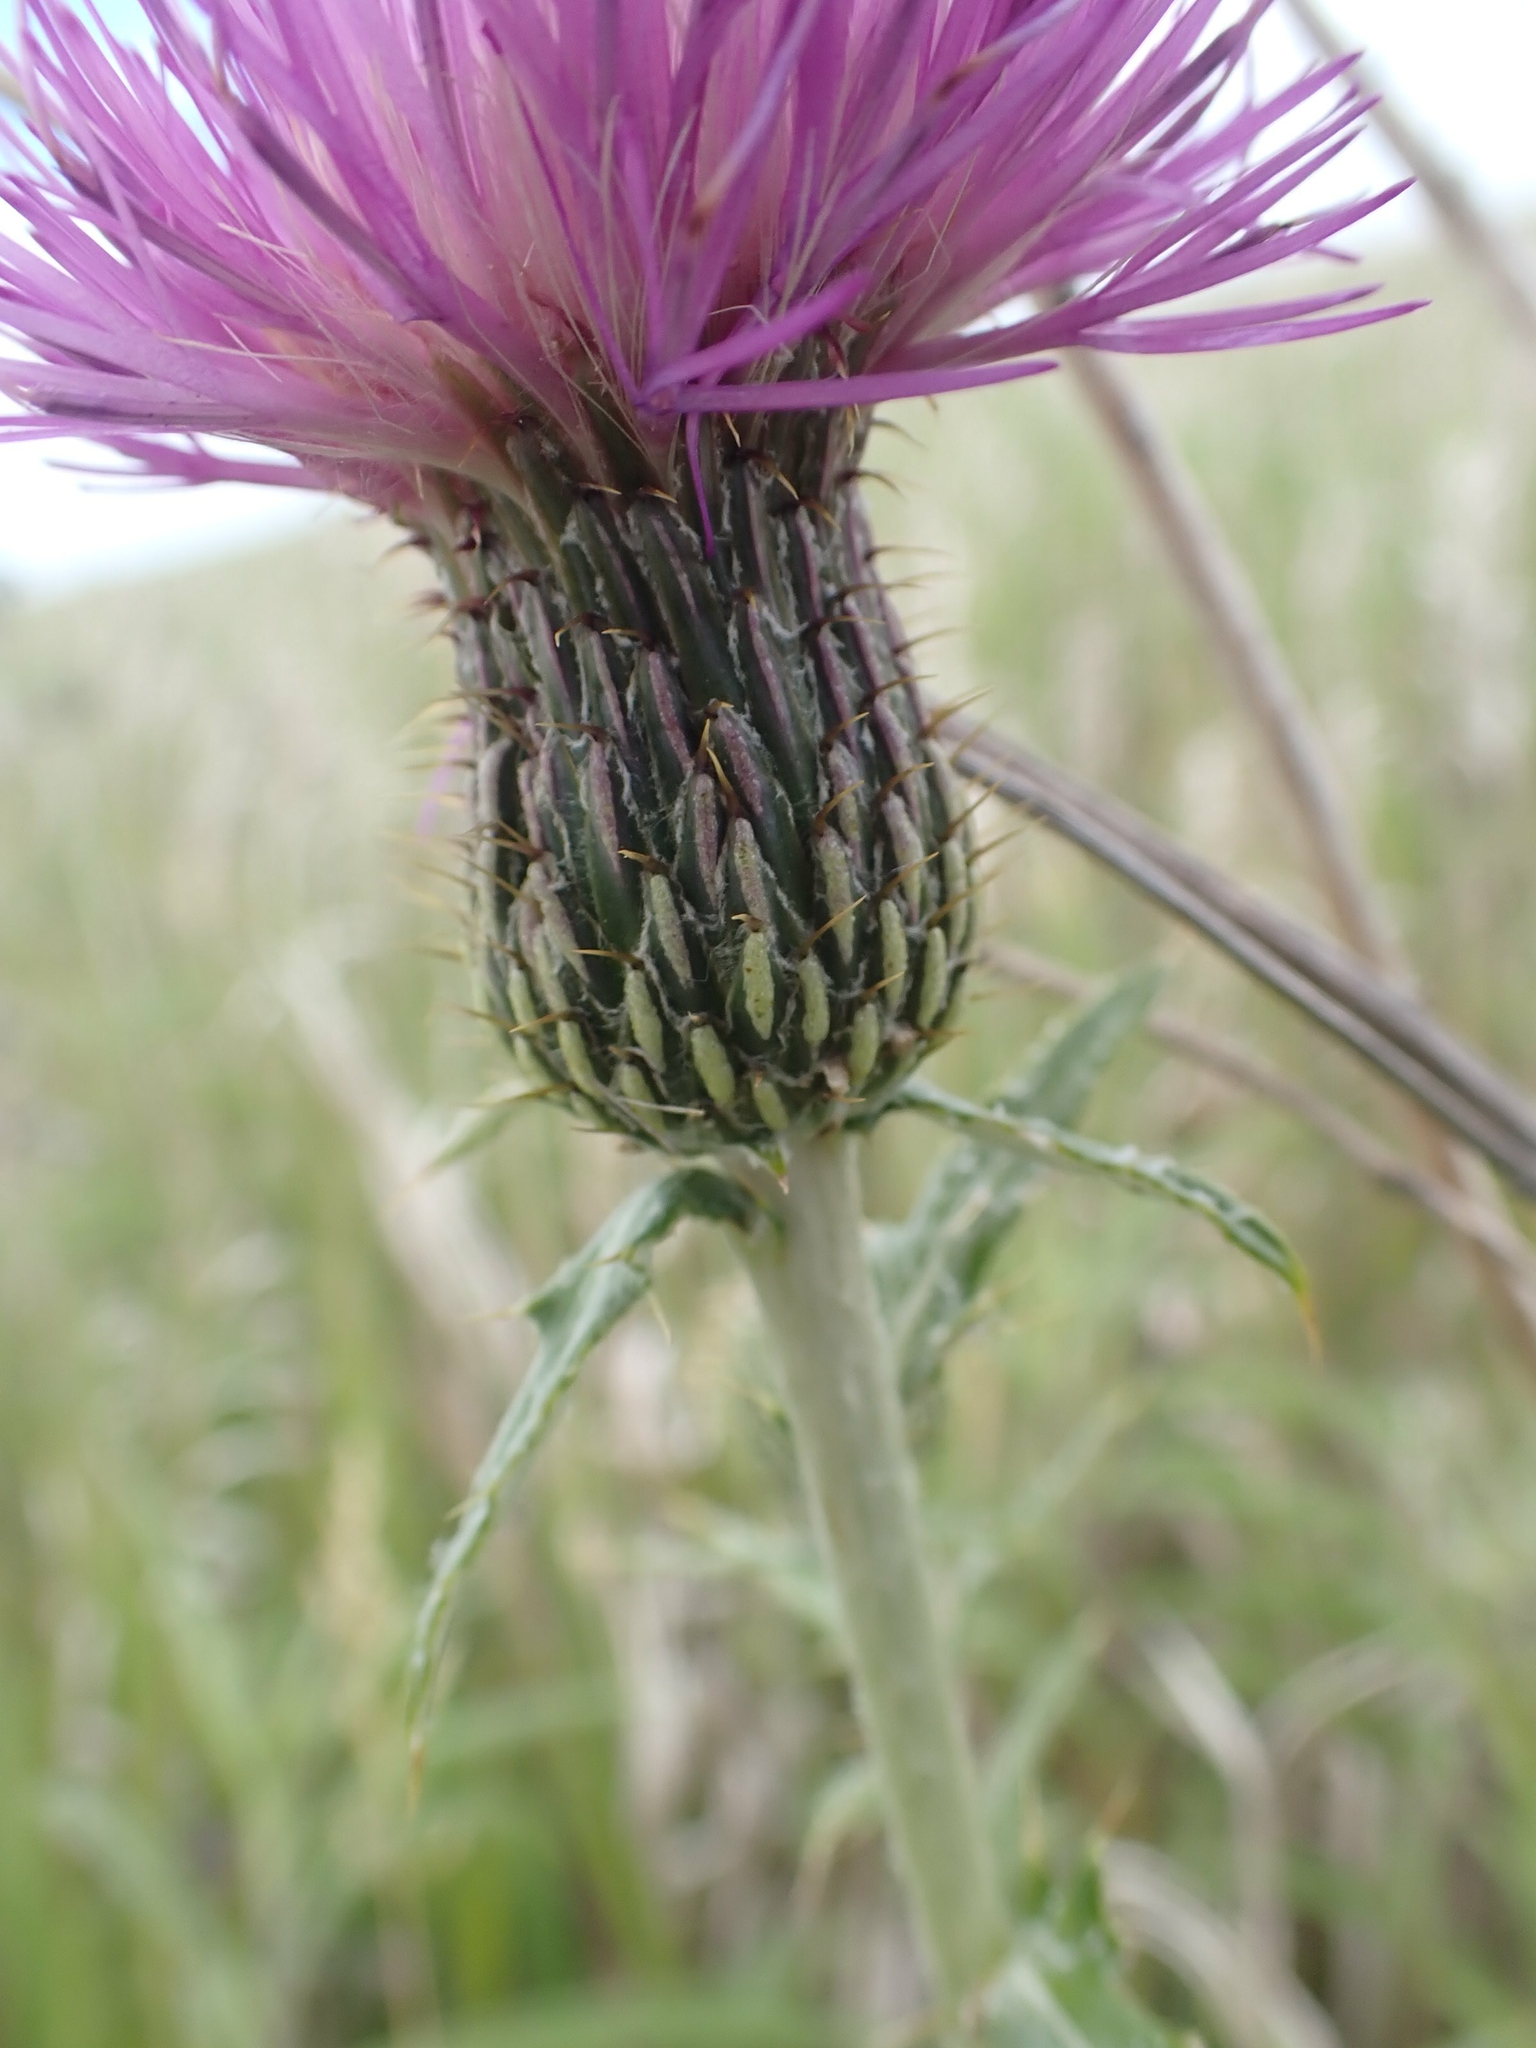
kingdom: Plantae
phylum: Tracheophyta
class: Magnoliopsida
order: Asterales
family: Asteraceae
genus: Cirsium
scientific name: Cirsium flodmanii
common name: Flodman's thistle
